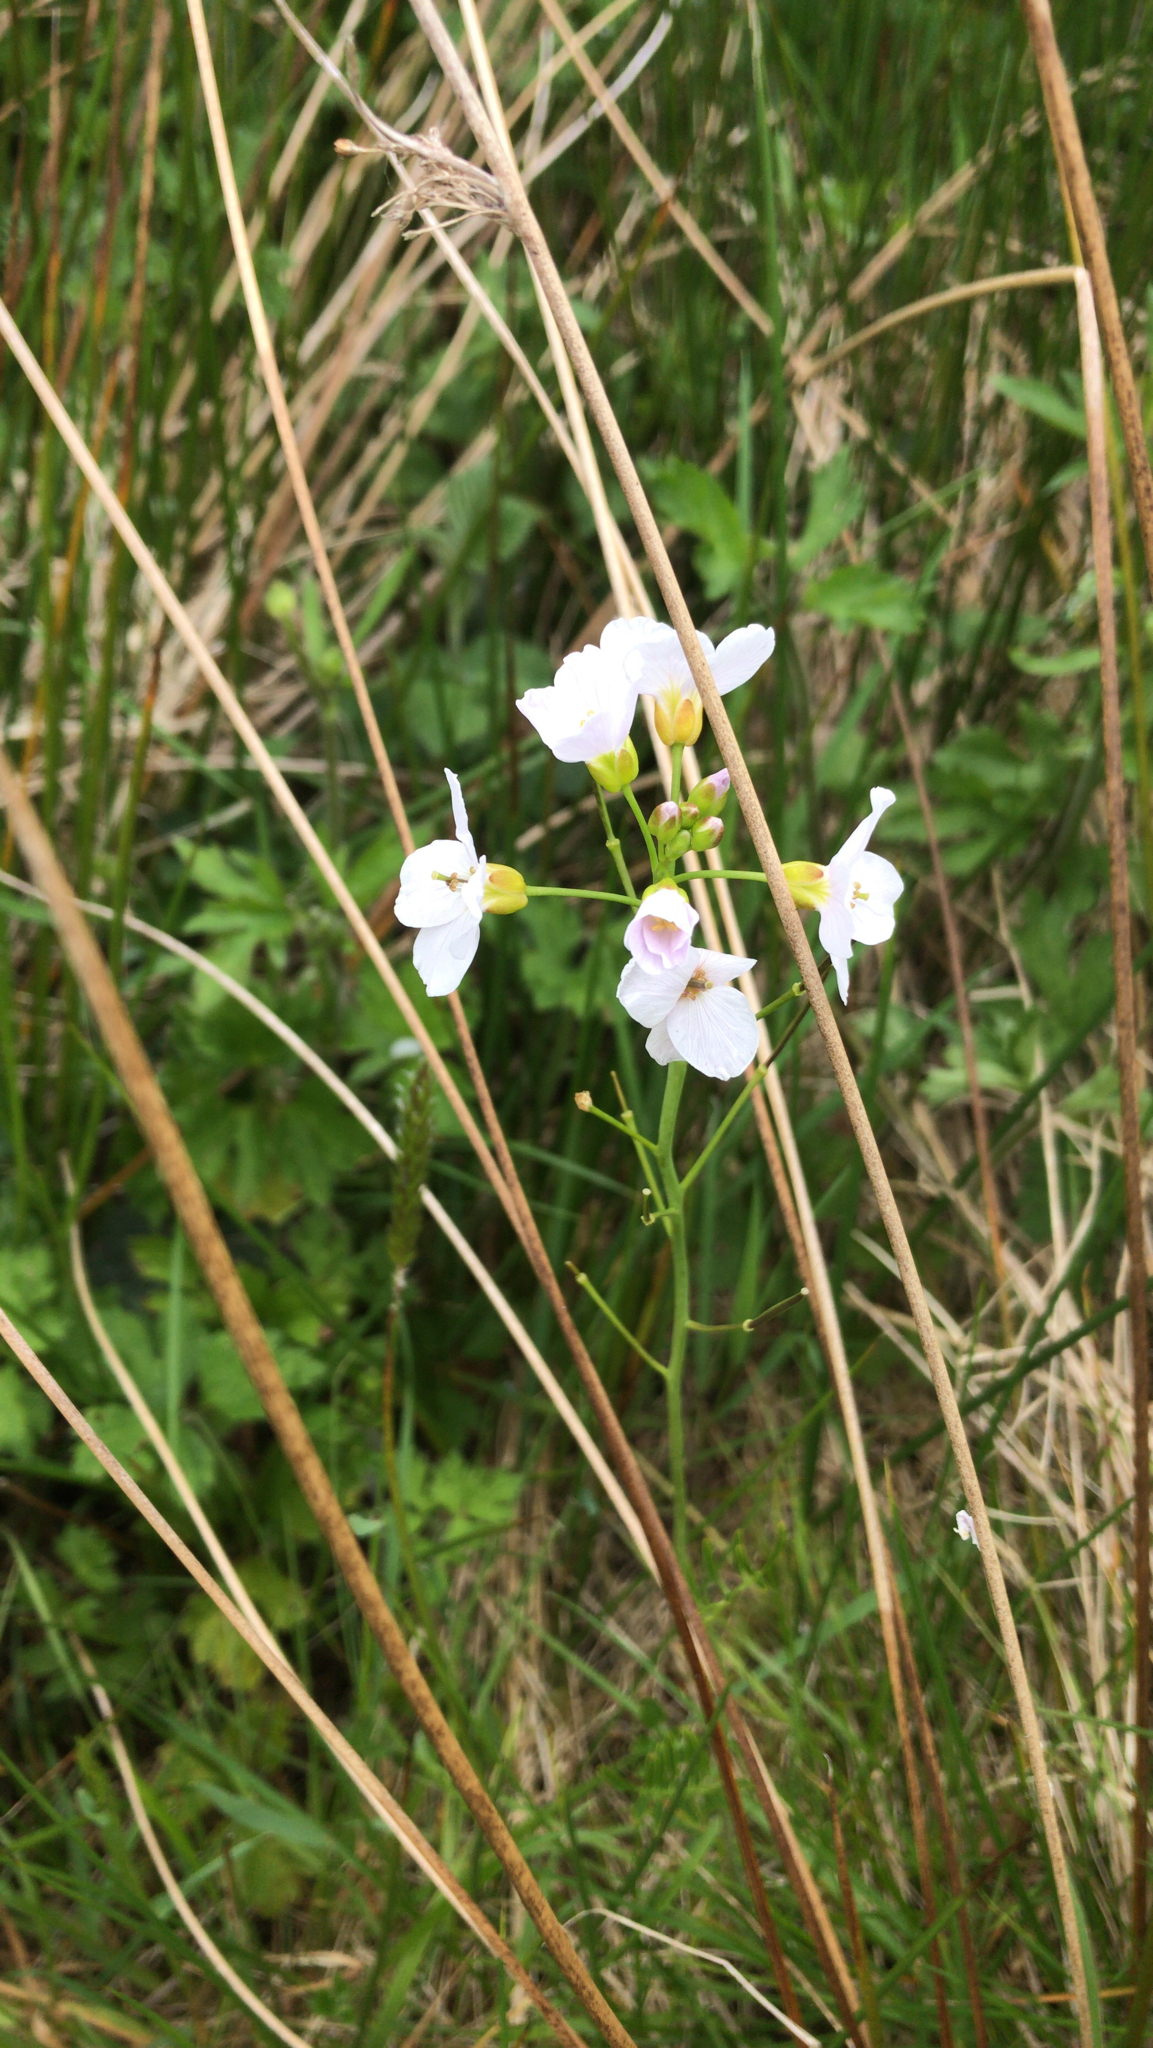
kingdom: Plantae
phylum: Tracheophyta
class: Magnoliopsida
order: Brassicales
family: Brassicaceae
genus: Cardamine
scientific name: Cardamine pratensis
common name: Cuckoo flower
